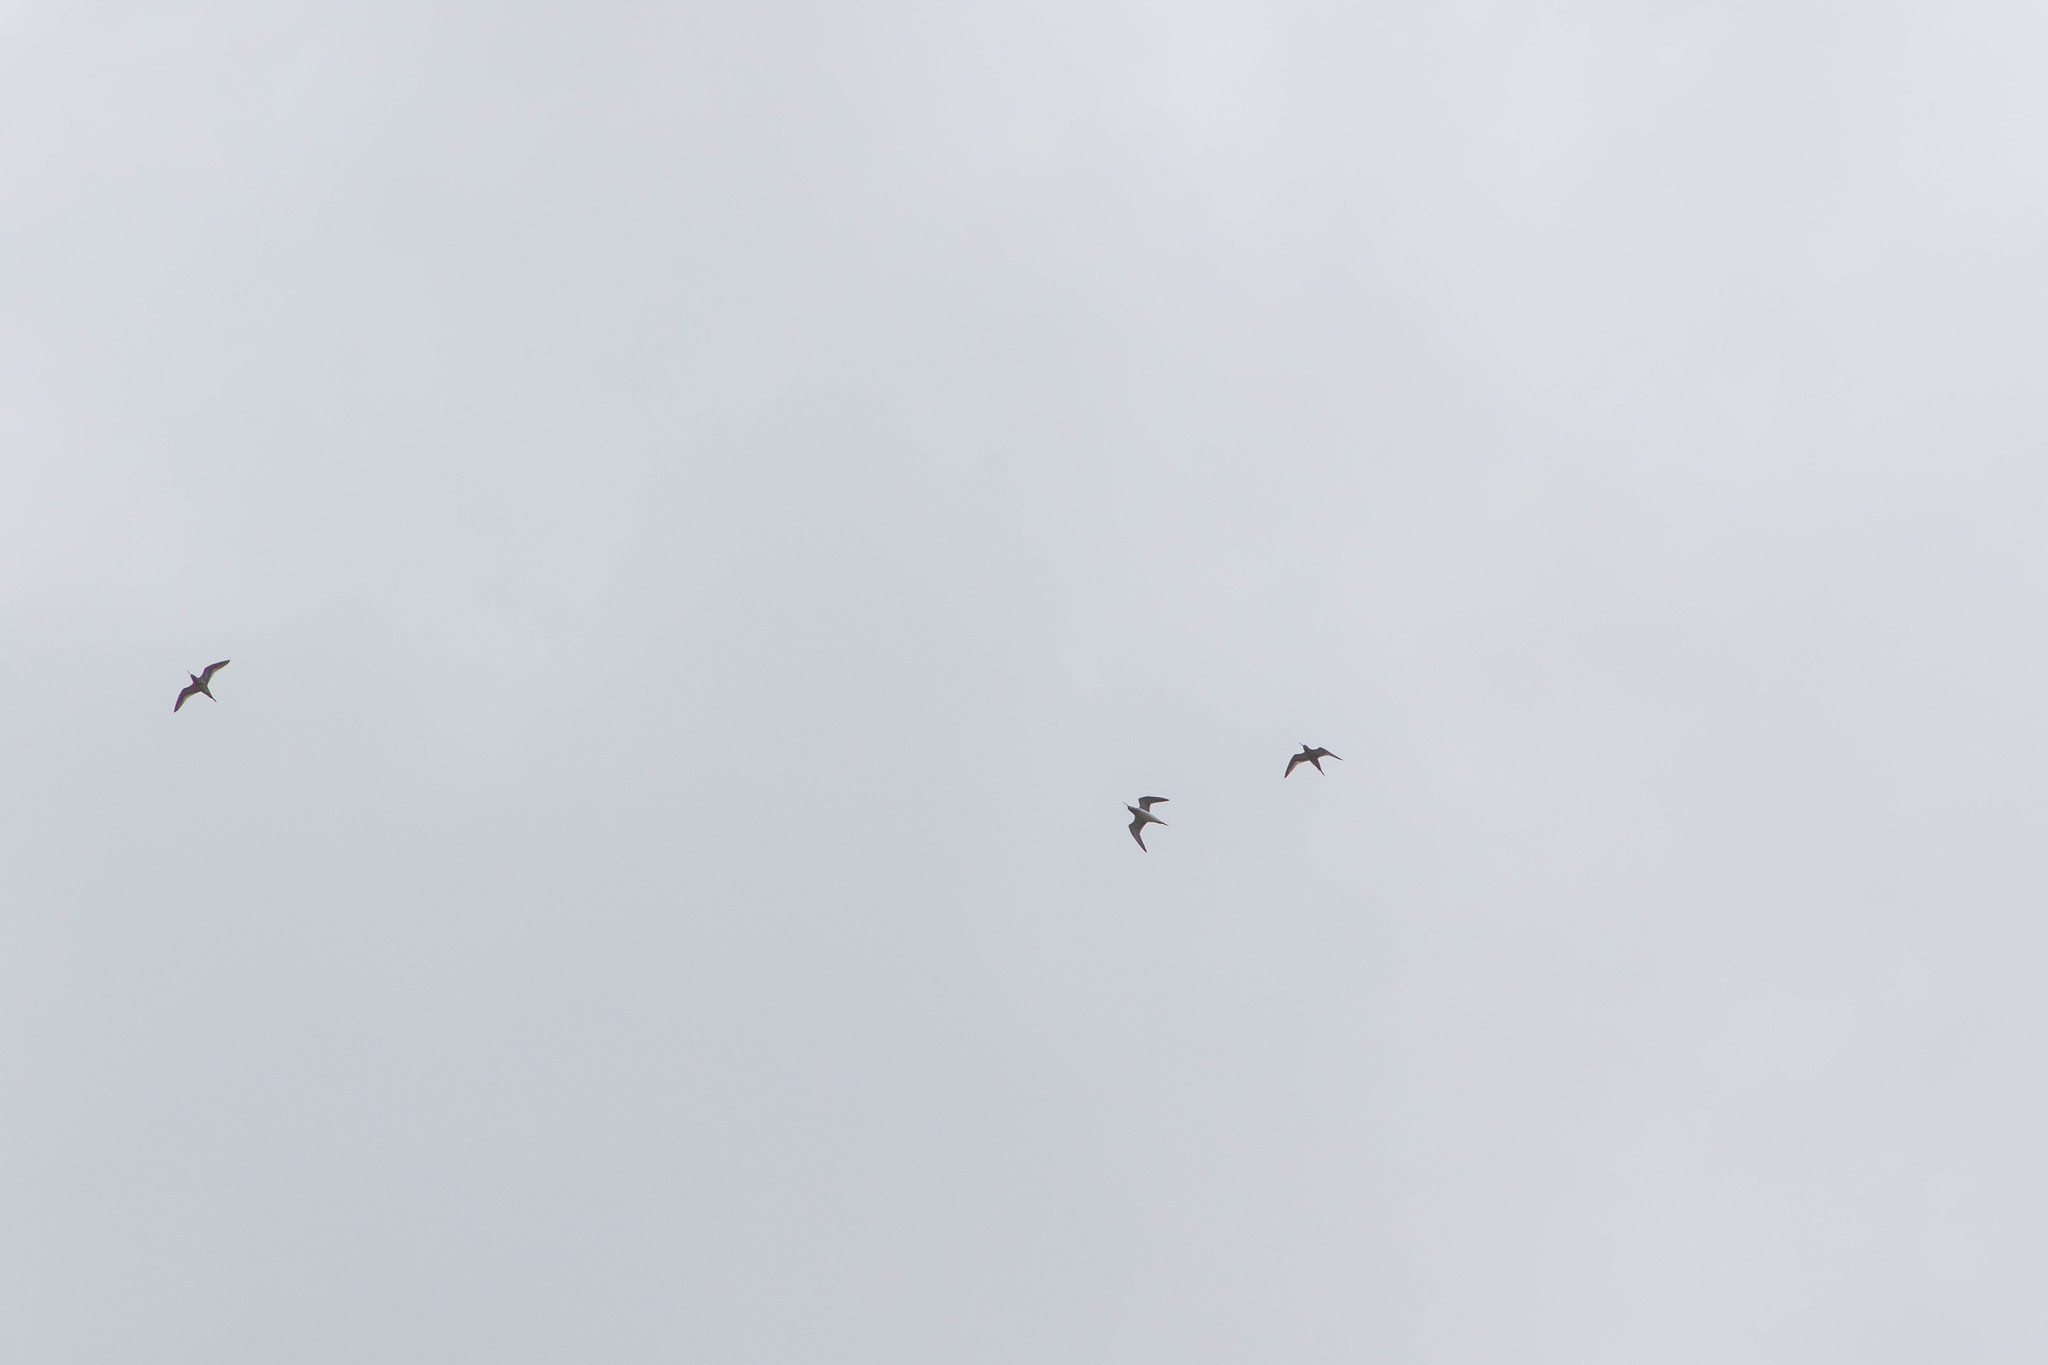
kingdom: Animalia
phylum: Chordata
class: Aves
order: Charadriiformes
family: Scolopacidae
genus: Tringa
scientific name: Tringa melanoleuca
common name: Greater yellowlegs
